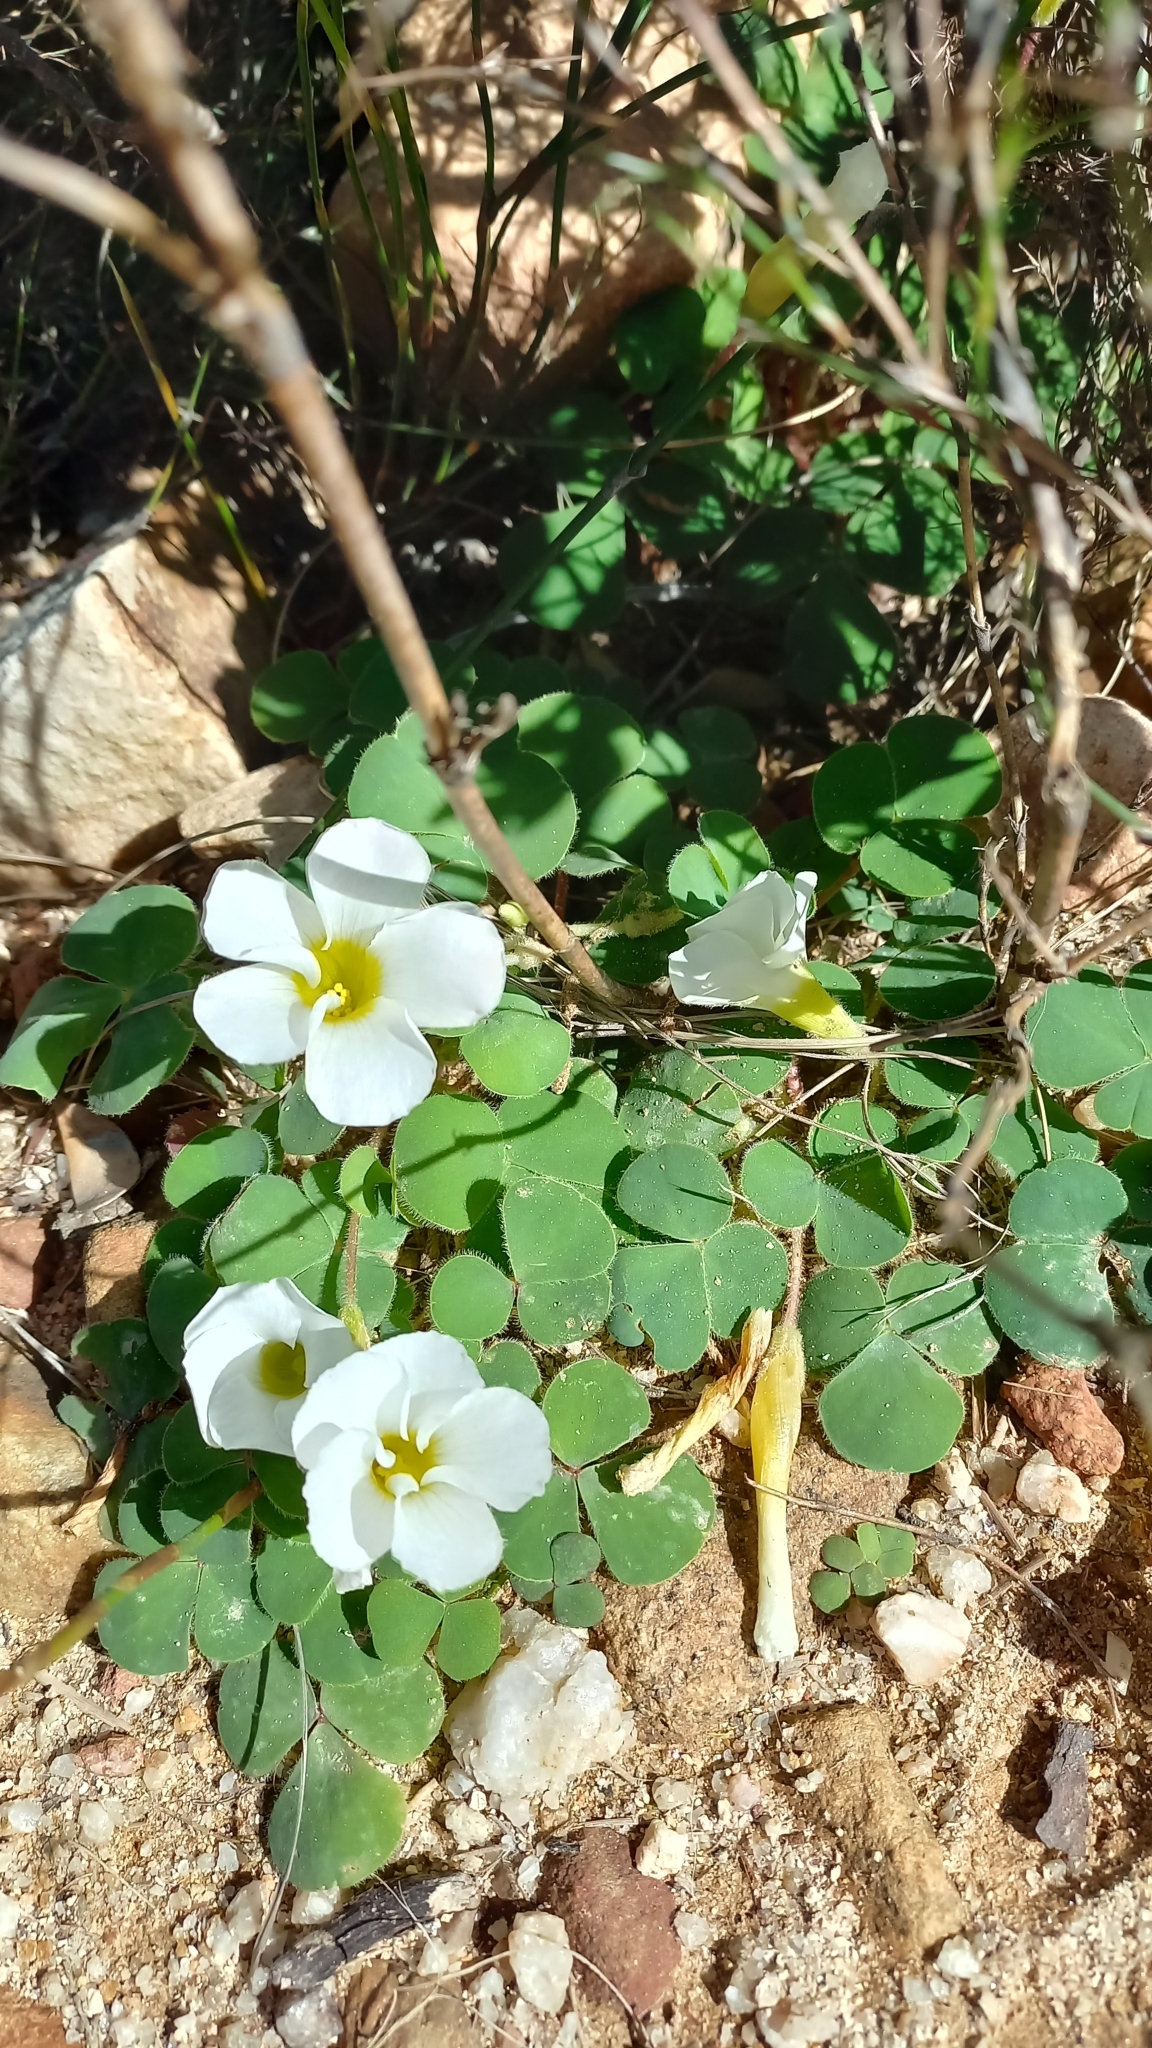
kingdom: Plantae
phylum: Tracheophyta
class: Magnoliopsida
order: Oxalidales
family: Oxalidaceae
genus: Oxalis
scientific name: Oxalis purpurea
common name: Purple woodsorrel
